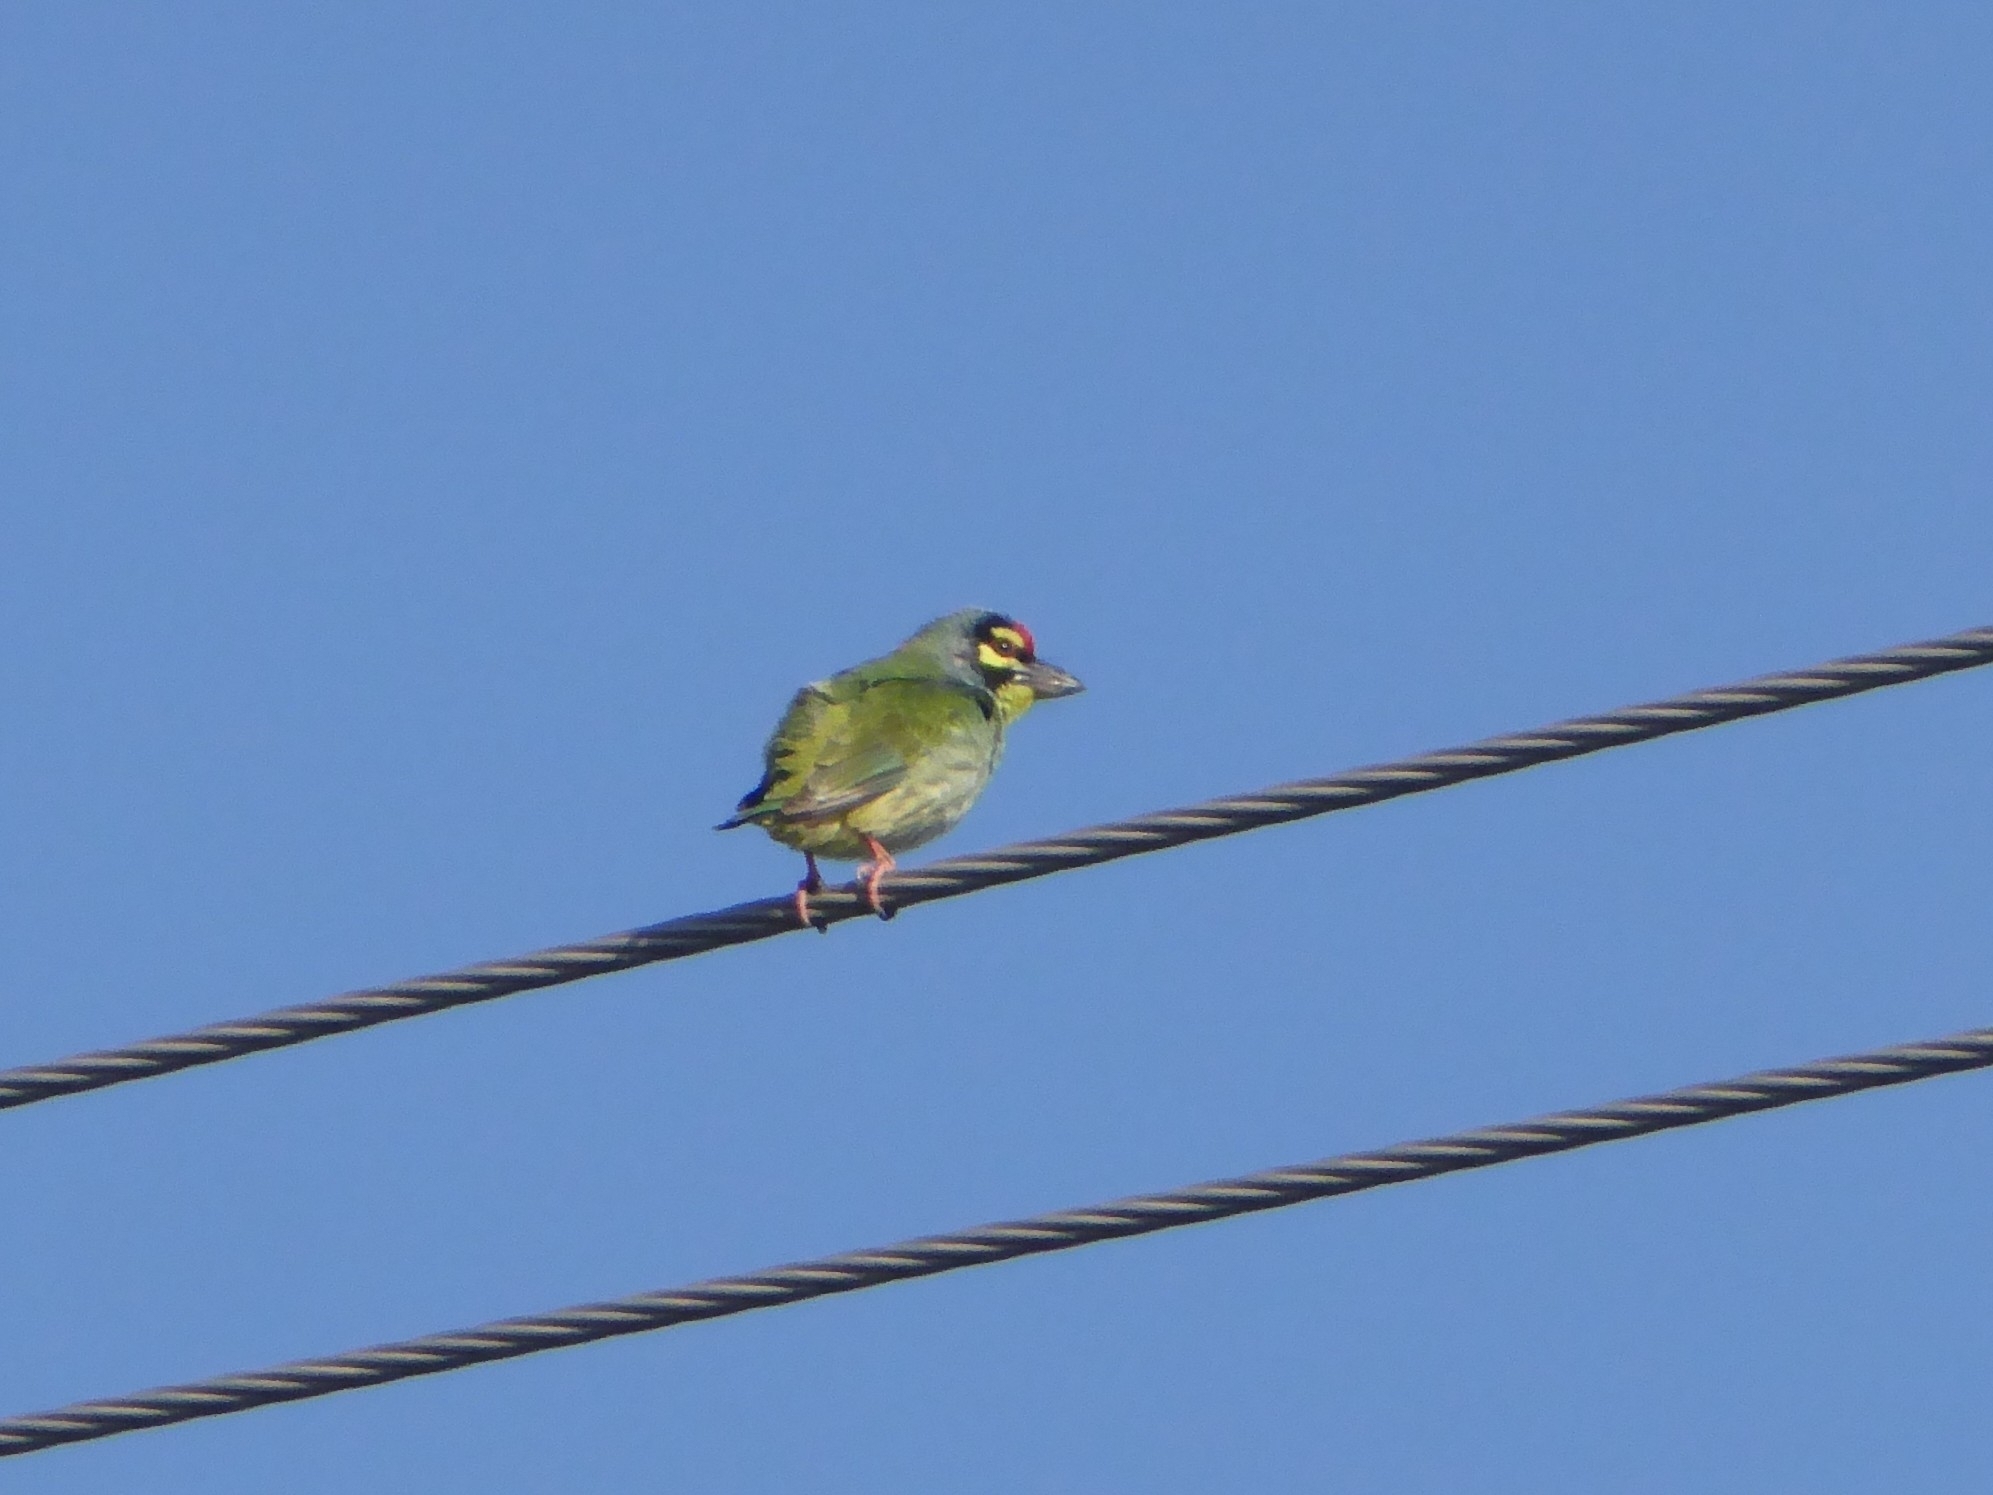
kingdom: Animalia
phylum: Chordata
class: Aves
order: Piciformes
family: Megalaimidae
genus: Psilopogon
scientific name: Psilopogon haemacephalus
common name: Coppersmith barbet
